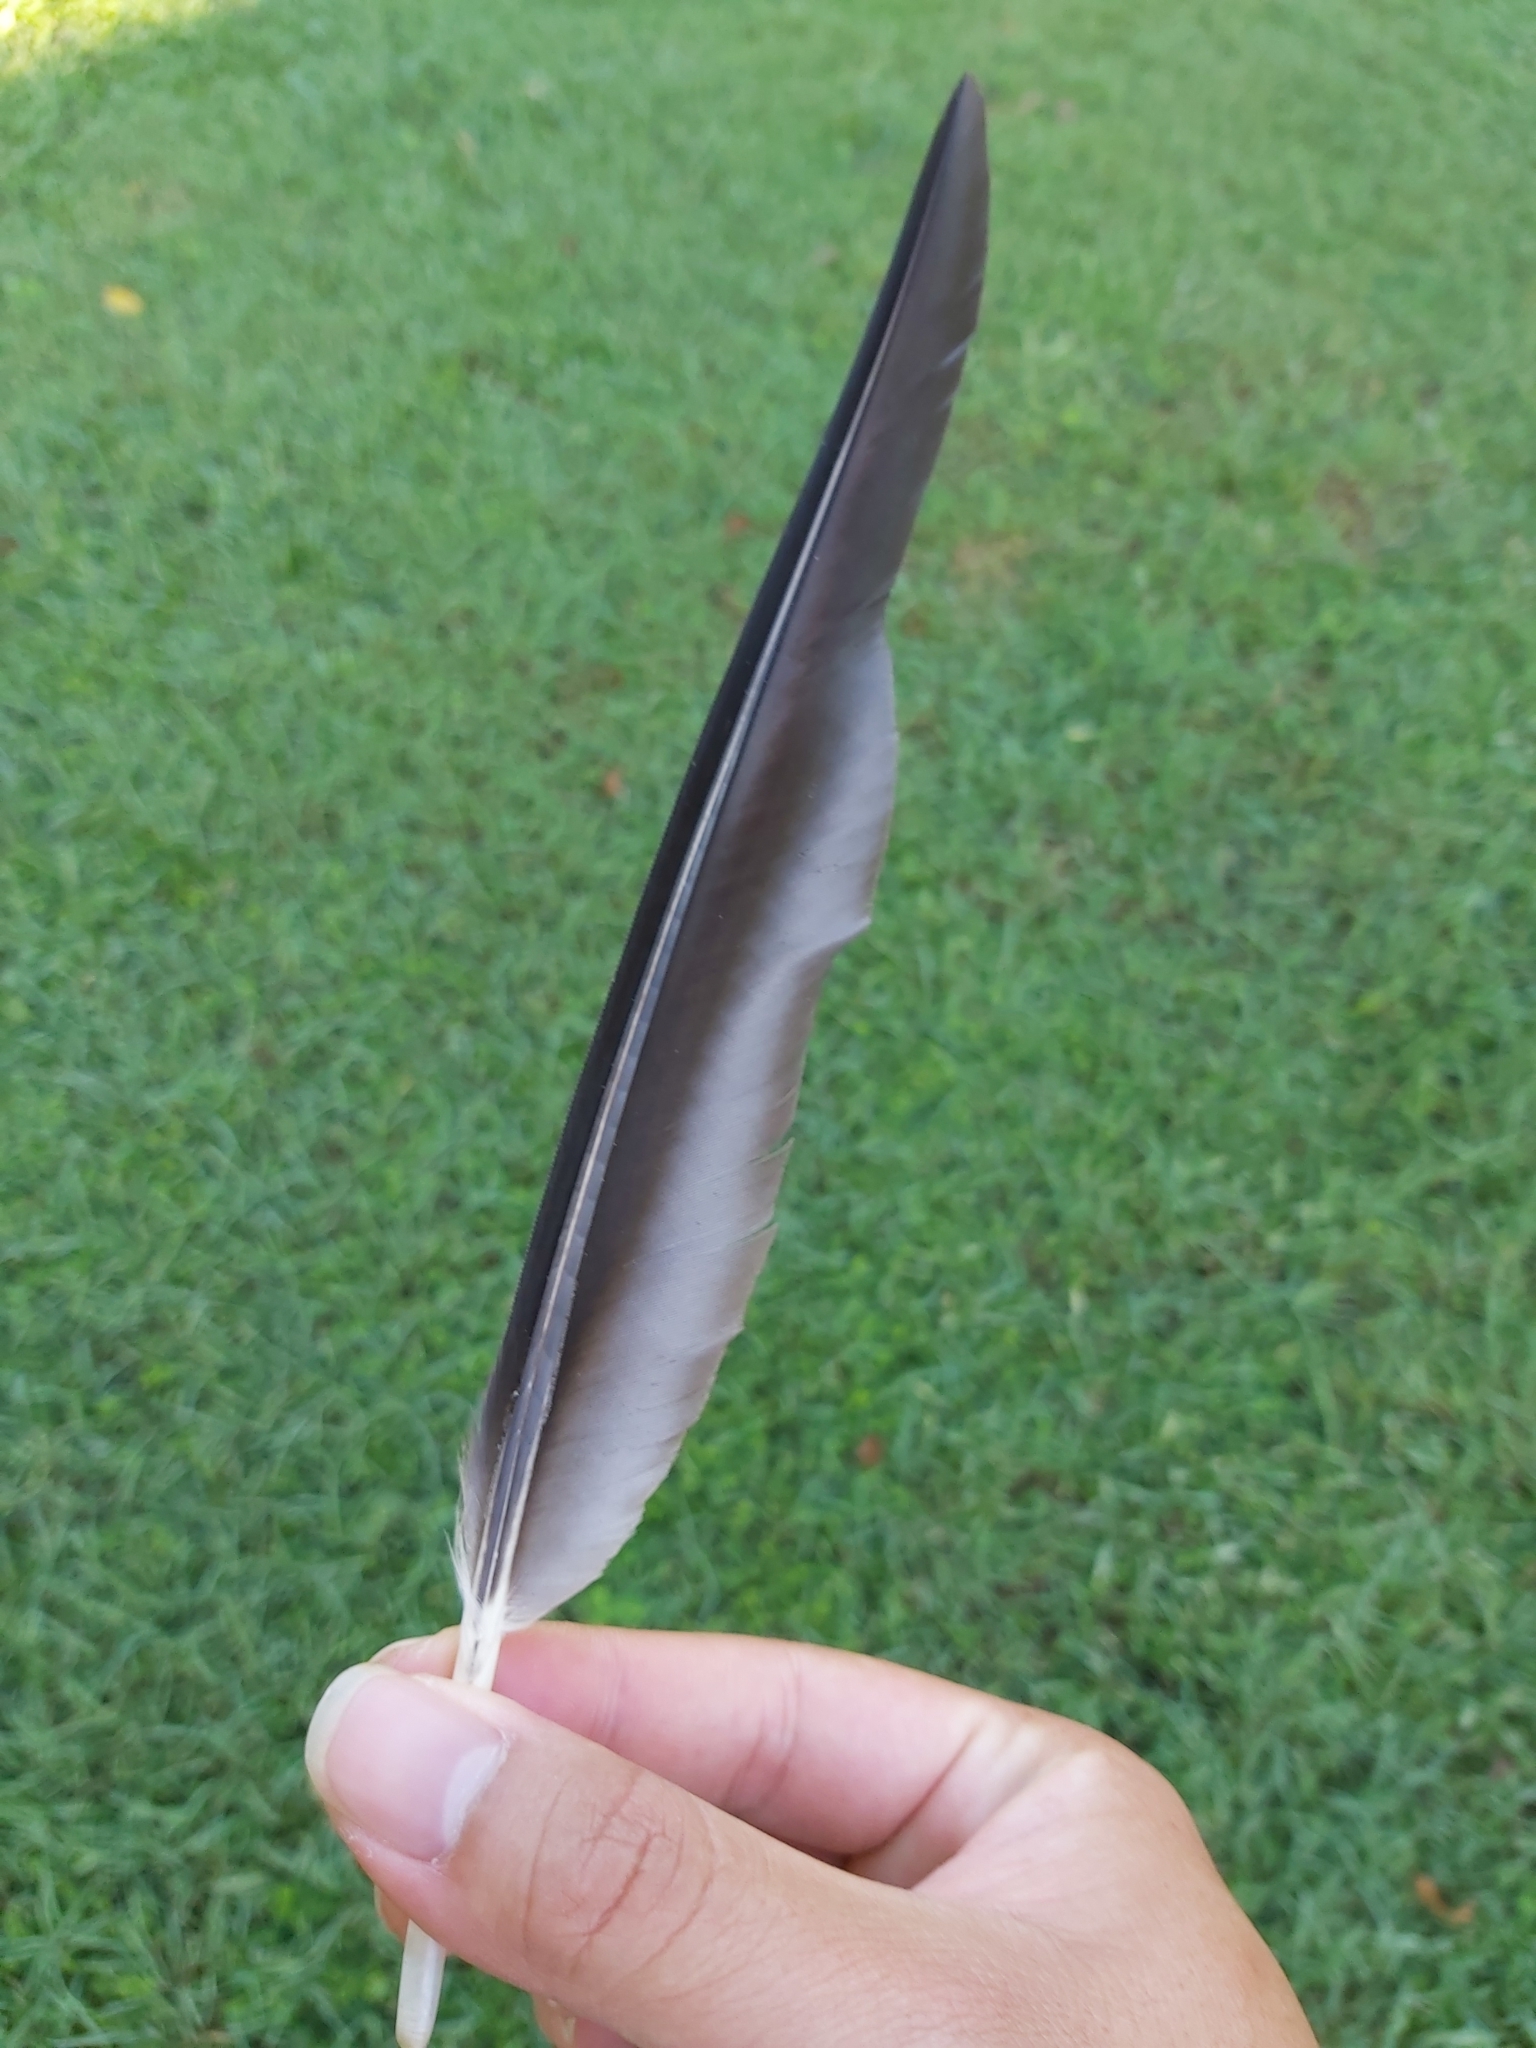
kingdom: Animalia
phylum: Chordata
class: Aves
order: Pelecaniformes
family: Threskiornithidae
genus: Threskiornis
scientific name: Threskiornis spinicollis
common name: Straw-necked ibis
